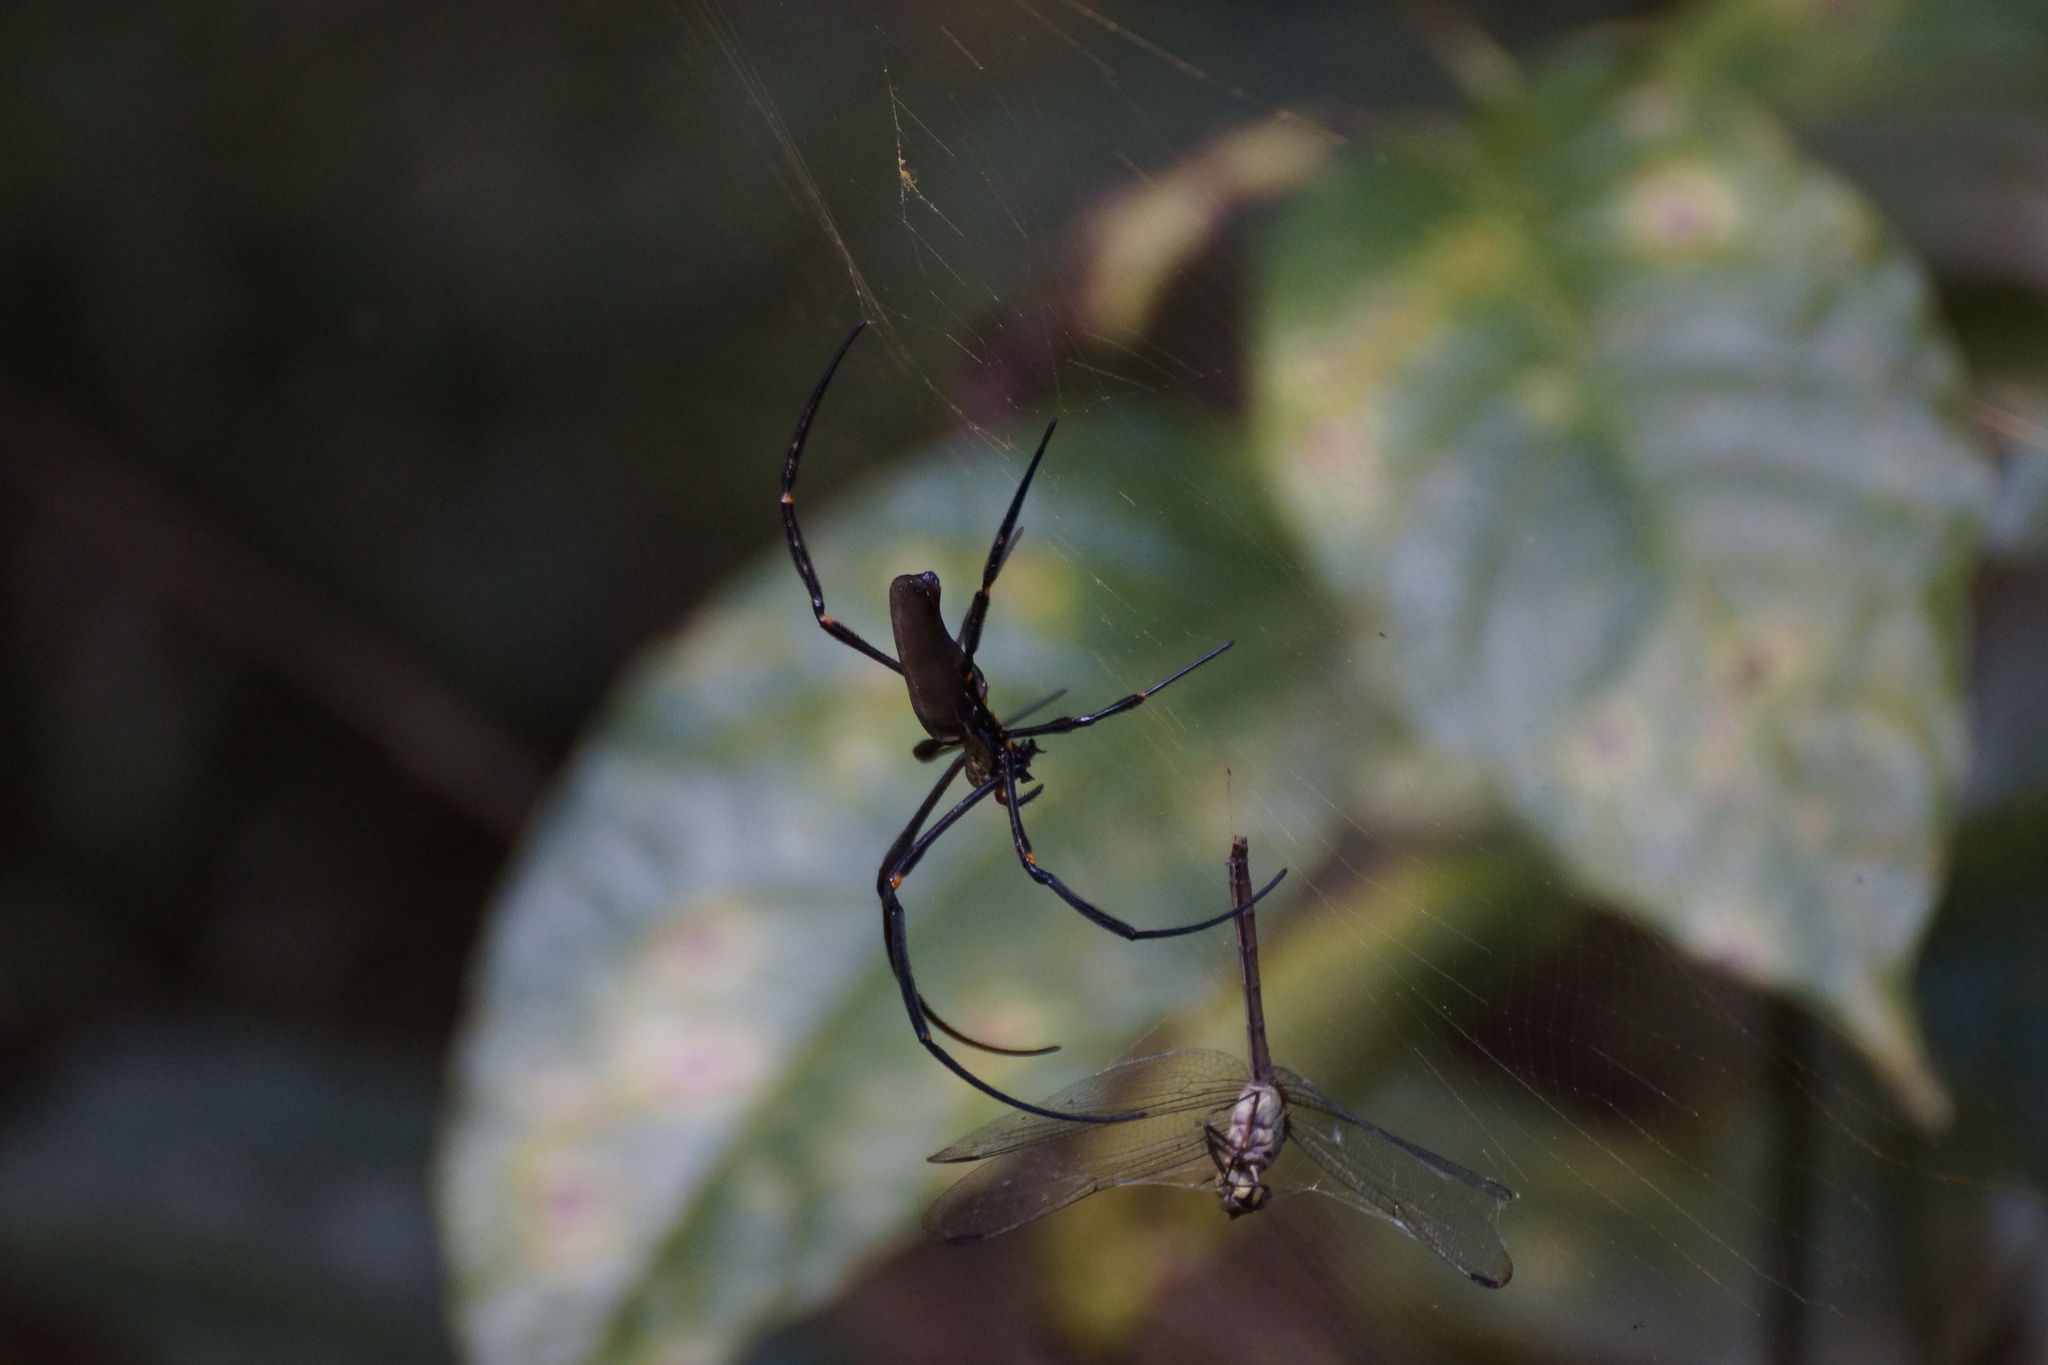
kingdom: Animalia
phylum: Arthropoda
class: Arachnida
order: Araneae
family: Araneidae
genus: Nephila
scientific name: Nephila pilipes
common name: Giant golden orb weaver
